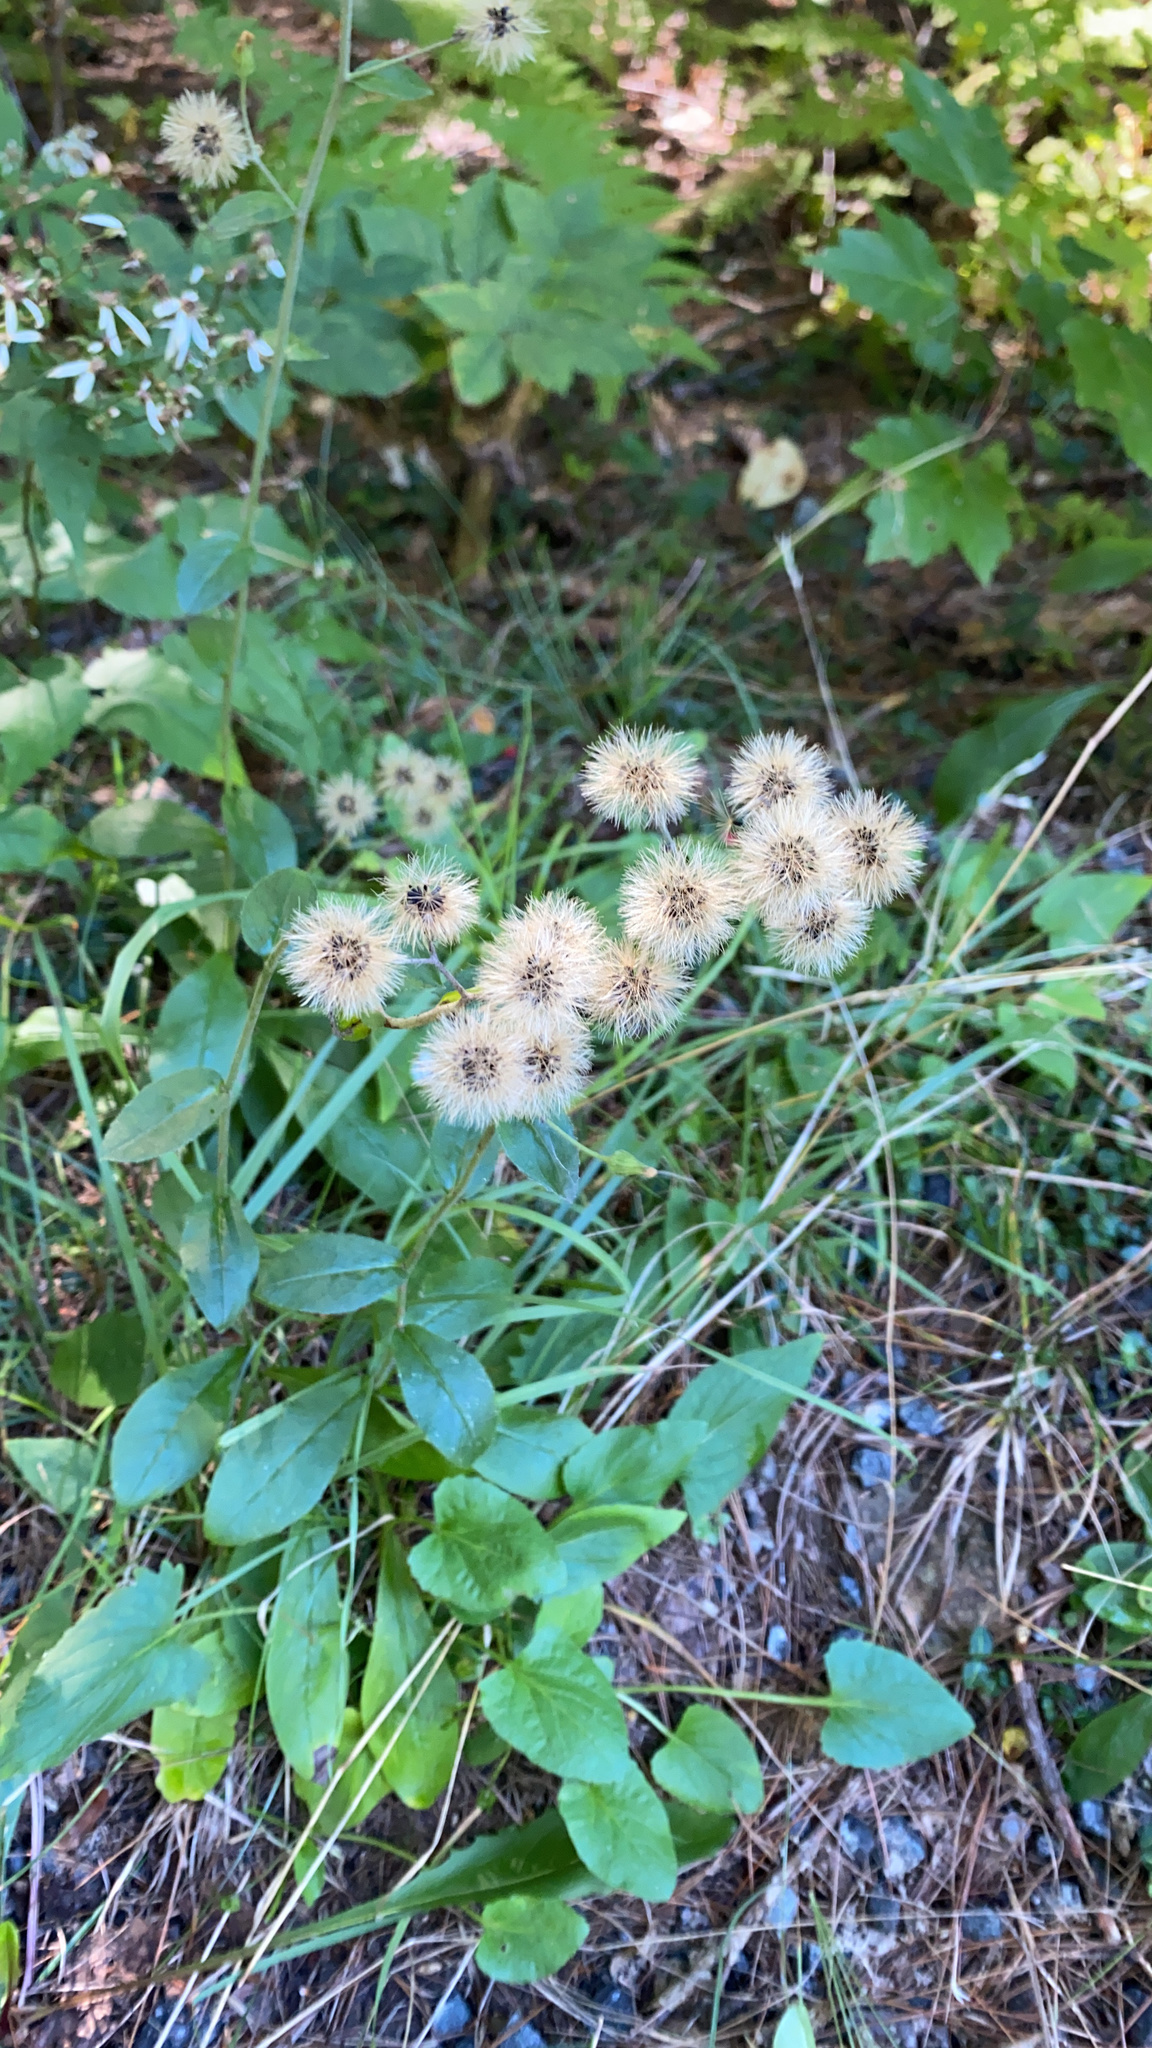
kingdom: Plantae
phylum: Tracheophyta
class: Magnoliopsida
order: Asterales
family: Asteraceae
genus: Hieracium
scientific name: Hieracium scabrum
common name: Rough hawkweed
